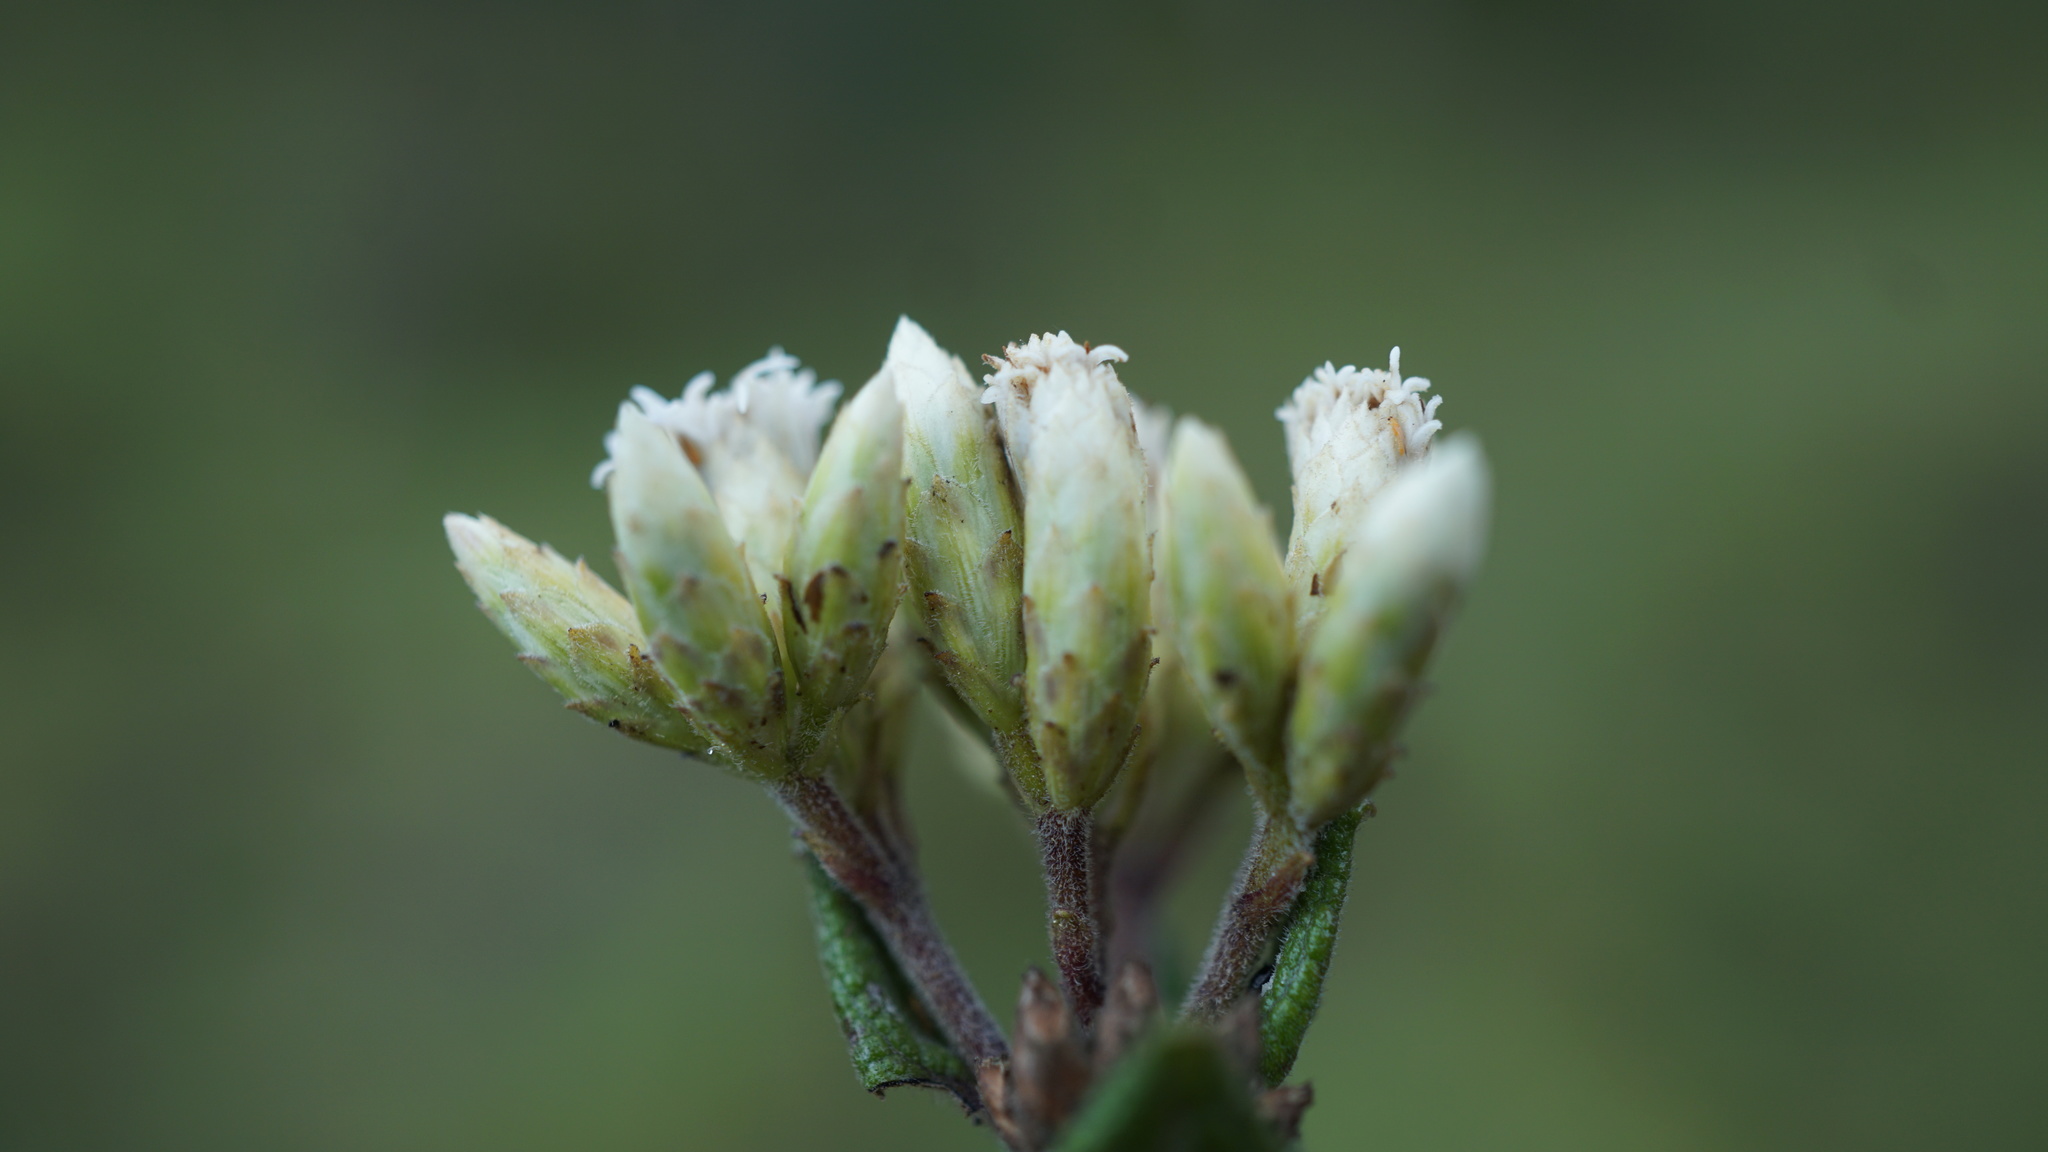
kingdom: Plantae
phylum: Tracheophyta
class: Magnoliopsida
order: Asterales
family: Asteraceae
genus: Chromolaena
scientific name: Chromolaena bullata
